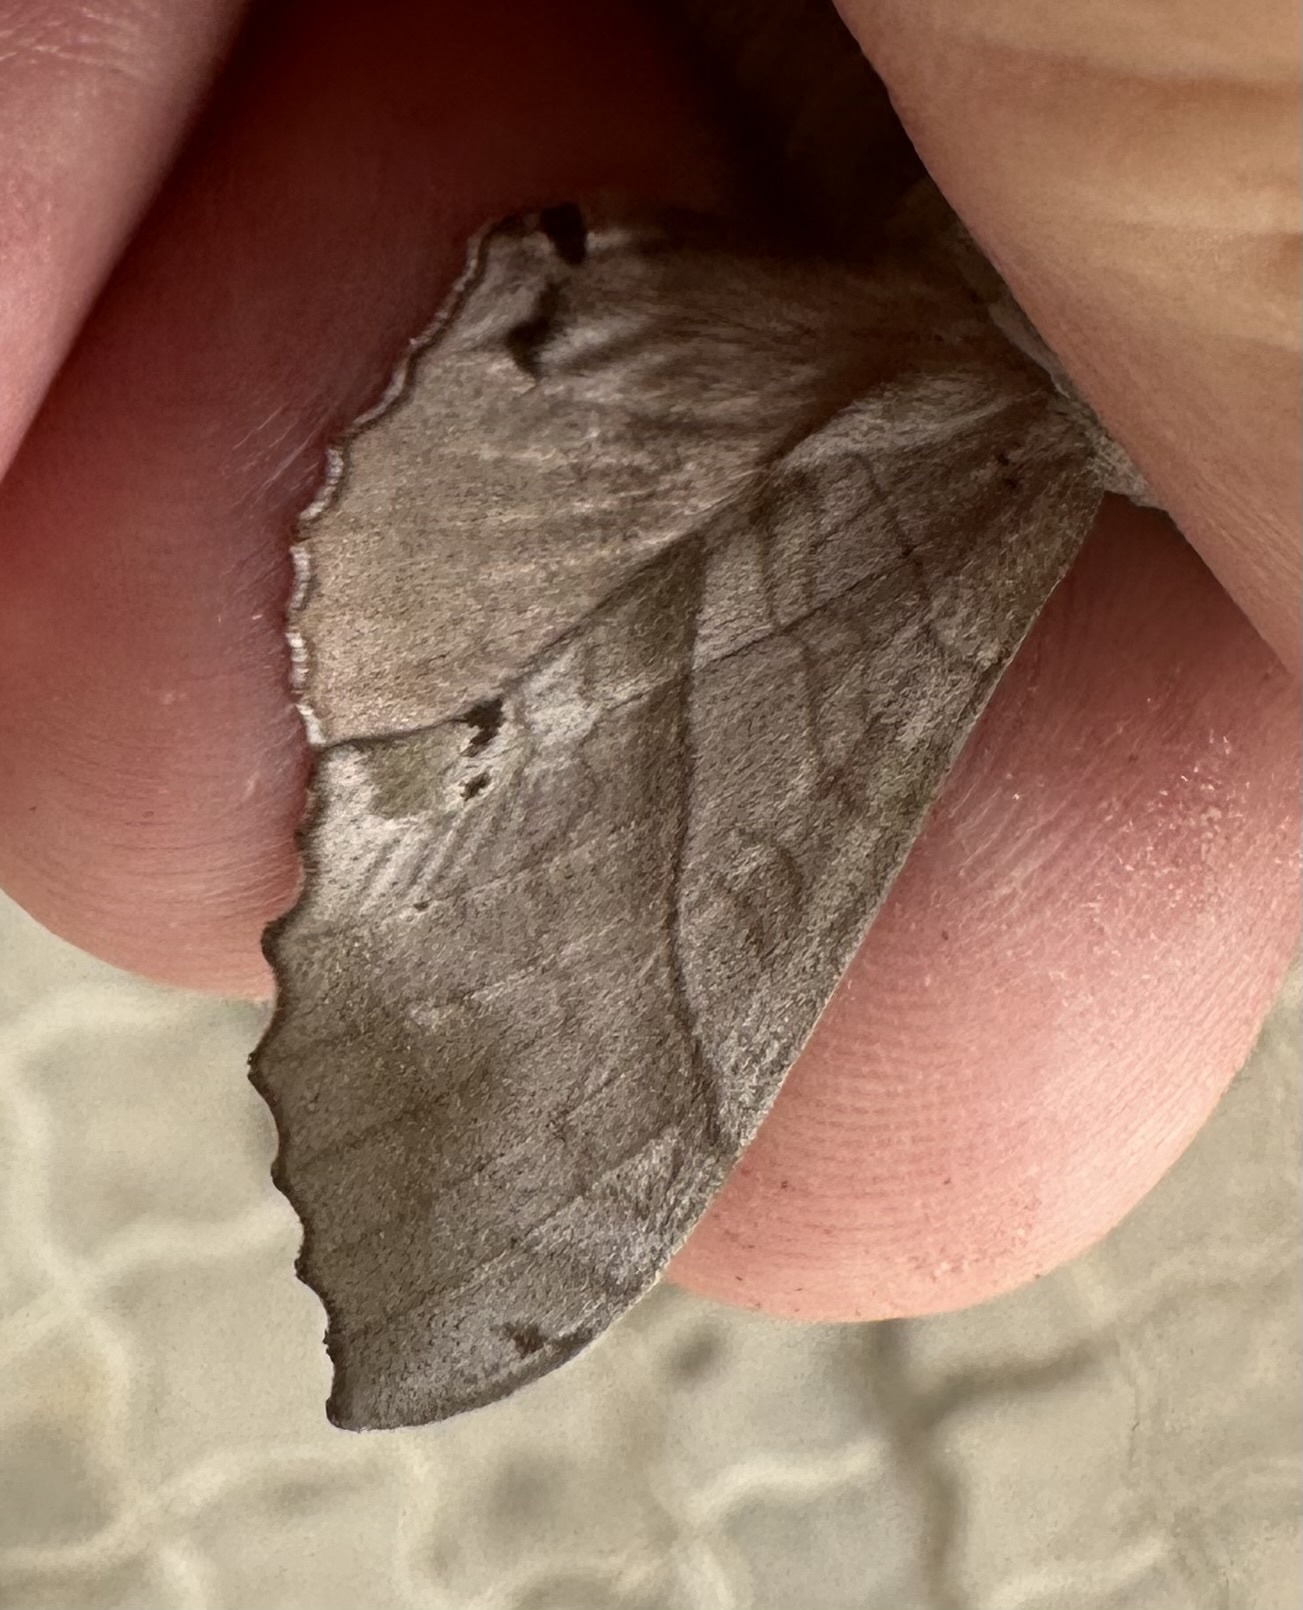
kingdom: Animalia
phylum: Arthropoda
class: Insecta
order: Lepidoptera
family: Sphingidae
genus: Rufoclanis
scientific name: Rufoclanis numosae
